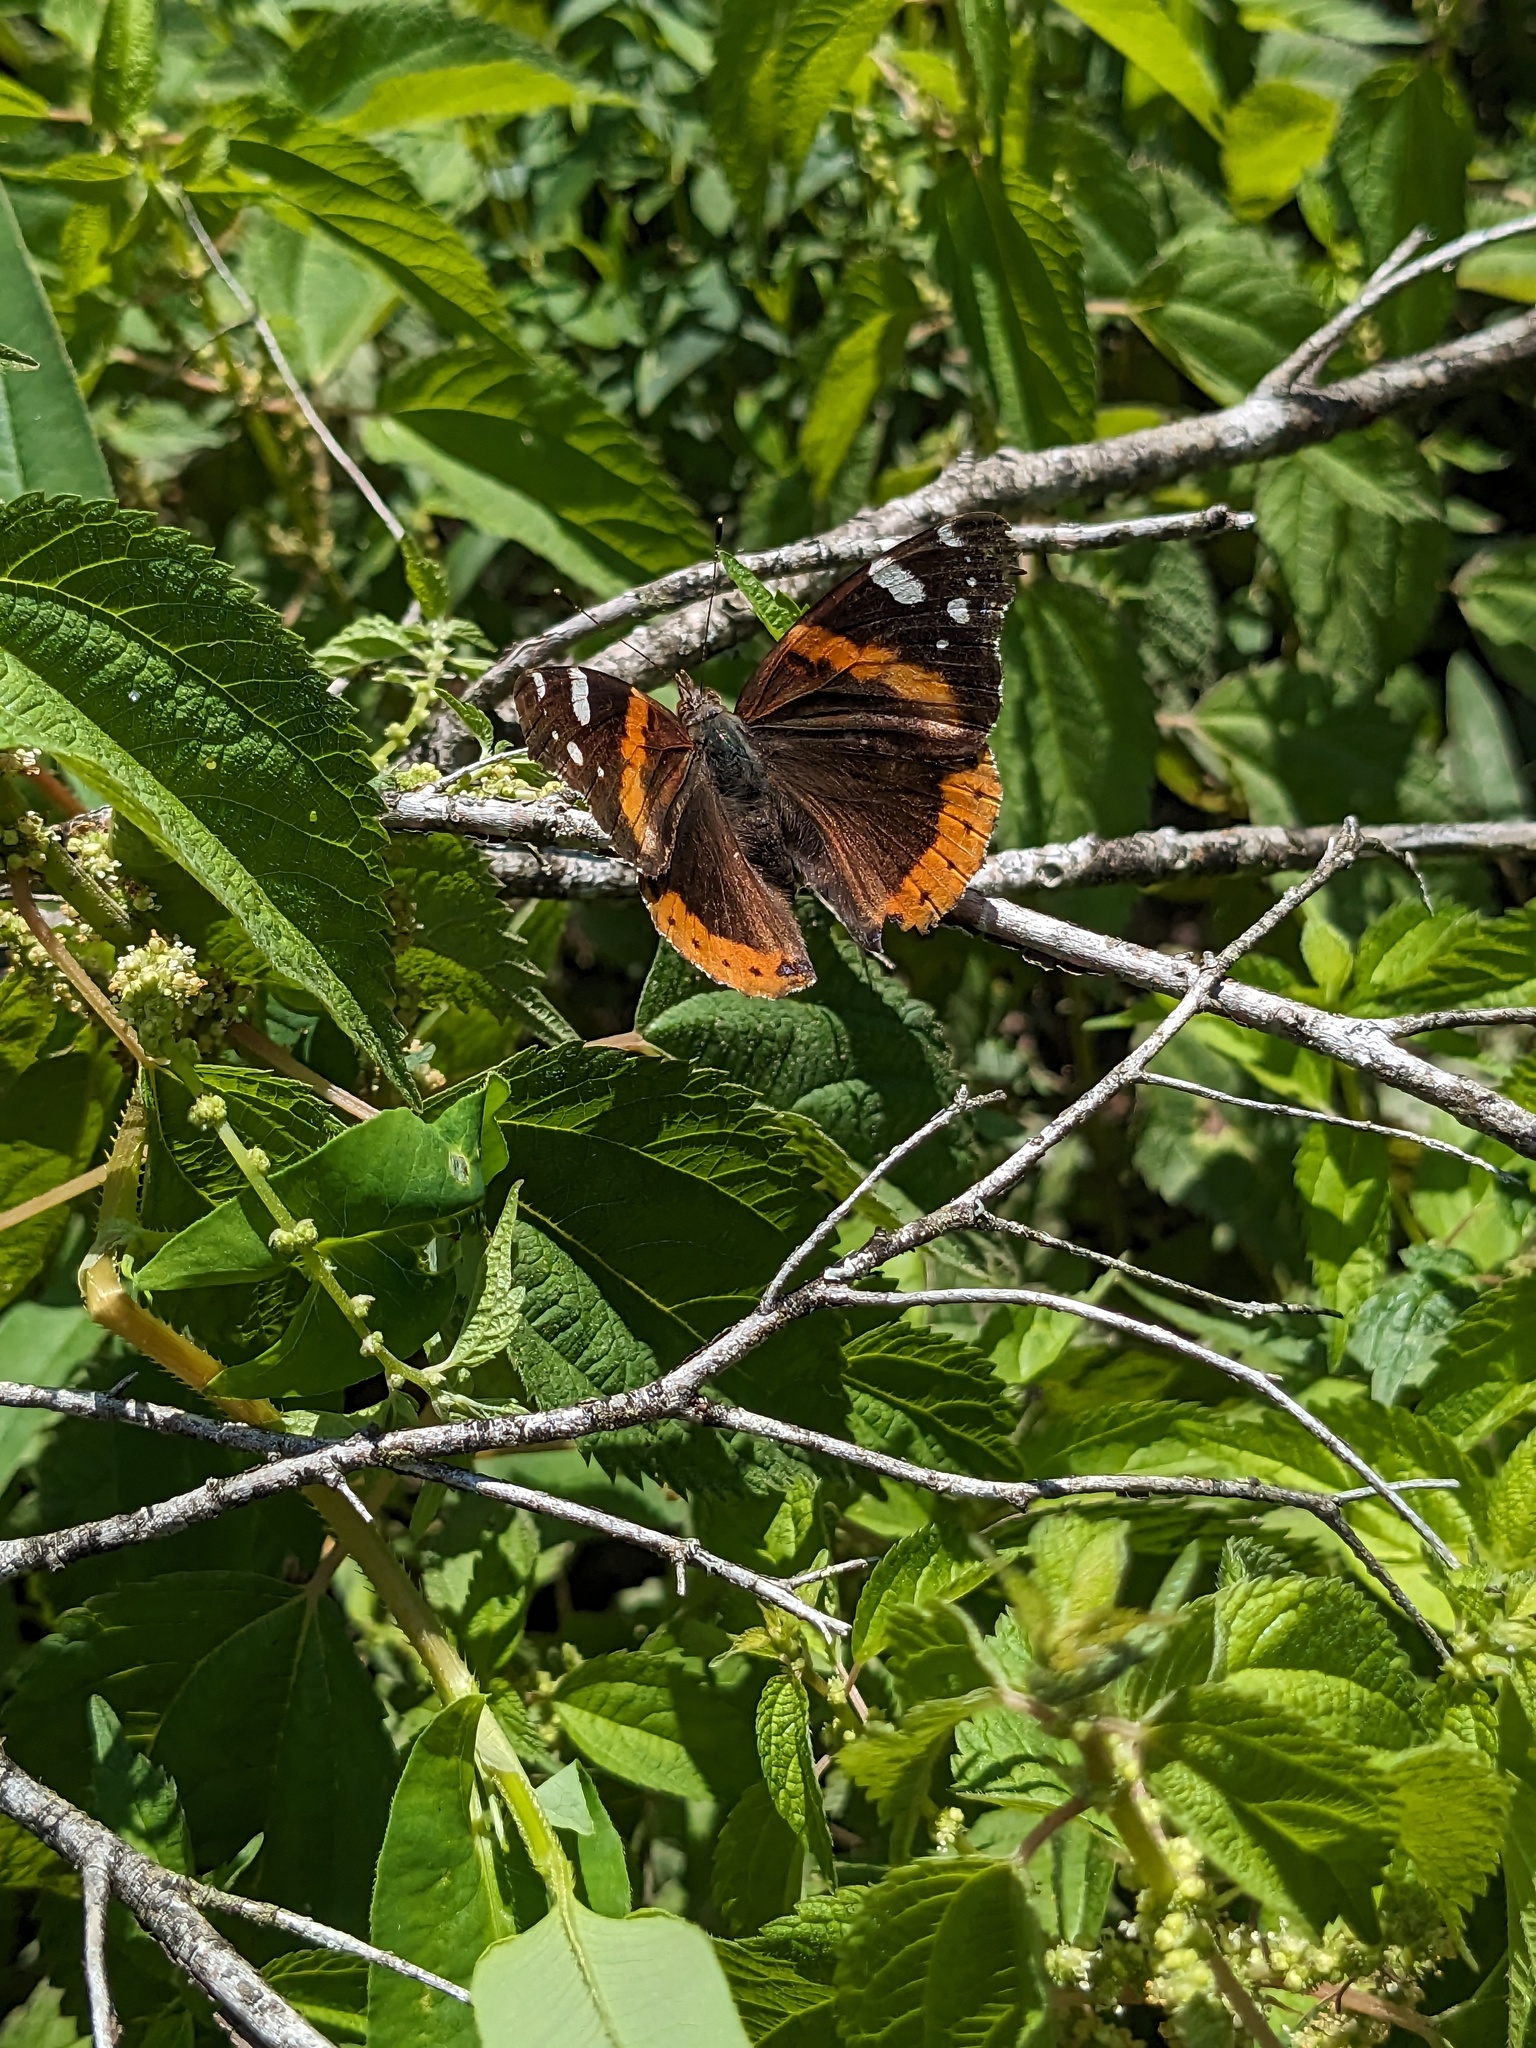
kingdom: Animalia
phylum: Arthropoda
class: Insecta
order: Lepidoptera
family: Nymphalidae
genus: Vanessa
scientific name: Vanessa atalanta
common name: Red admiral
